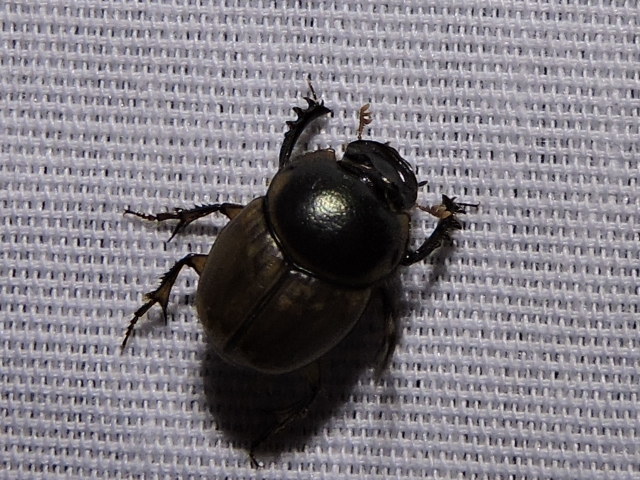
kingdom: Animalia
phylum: Arthropoda
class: Insecta
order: Coleoptera
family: Scarabaeidae
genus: Digitonthophagus
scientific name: Digitonthophagus gazella
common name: Brown dung beetle
